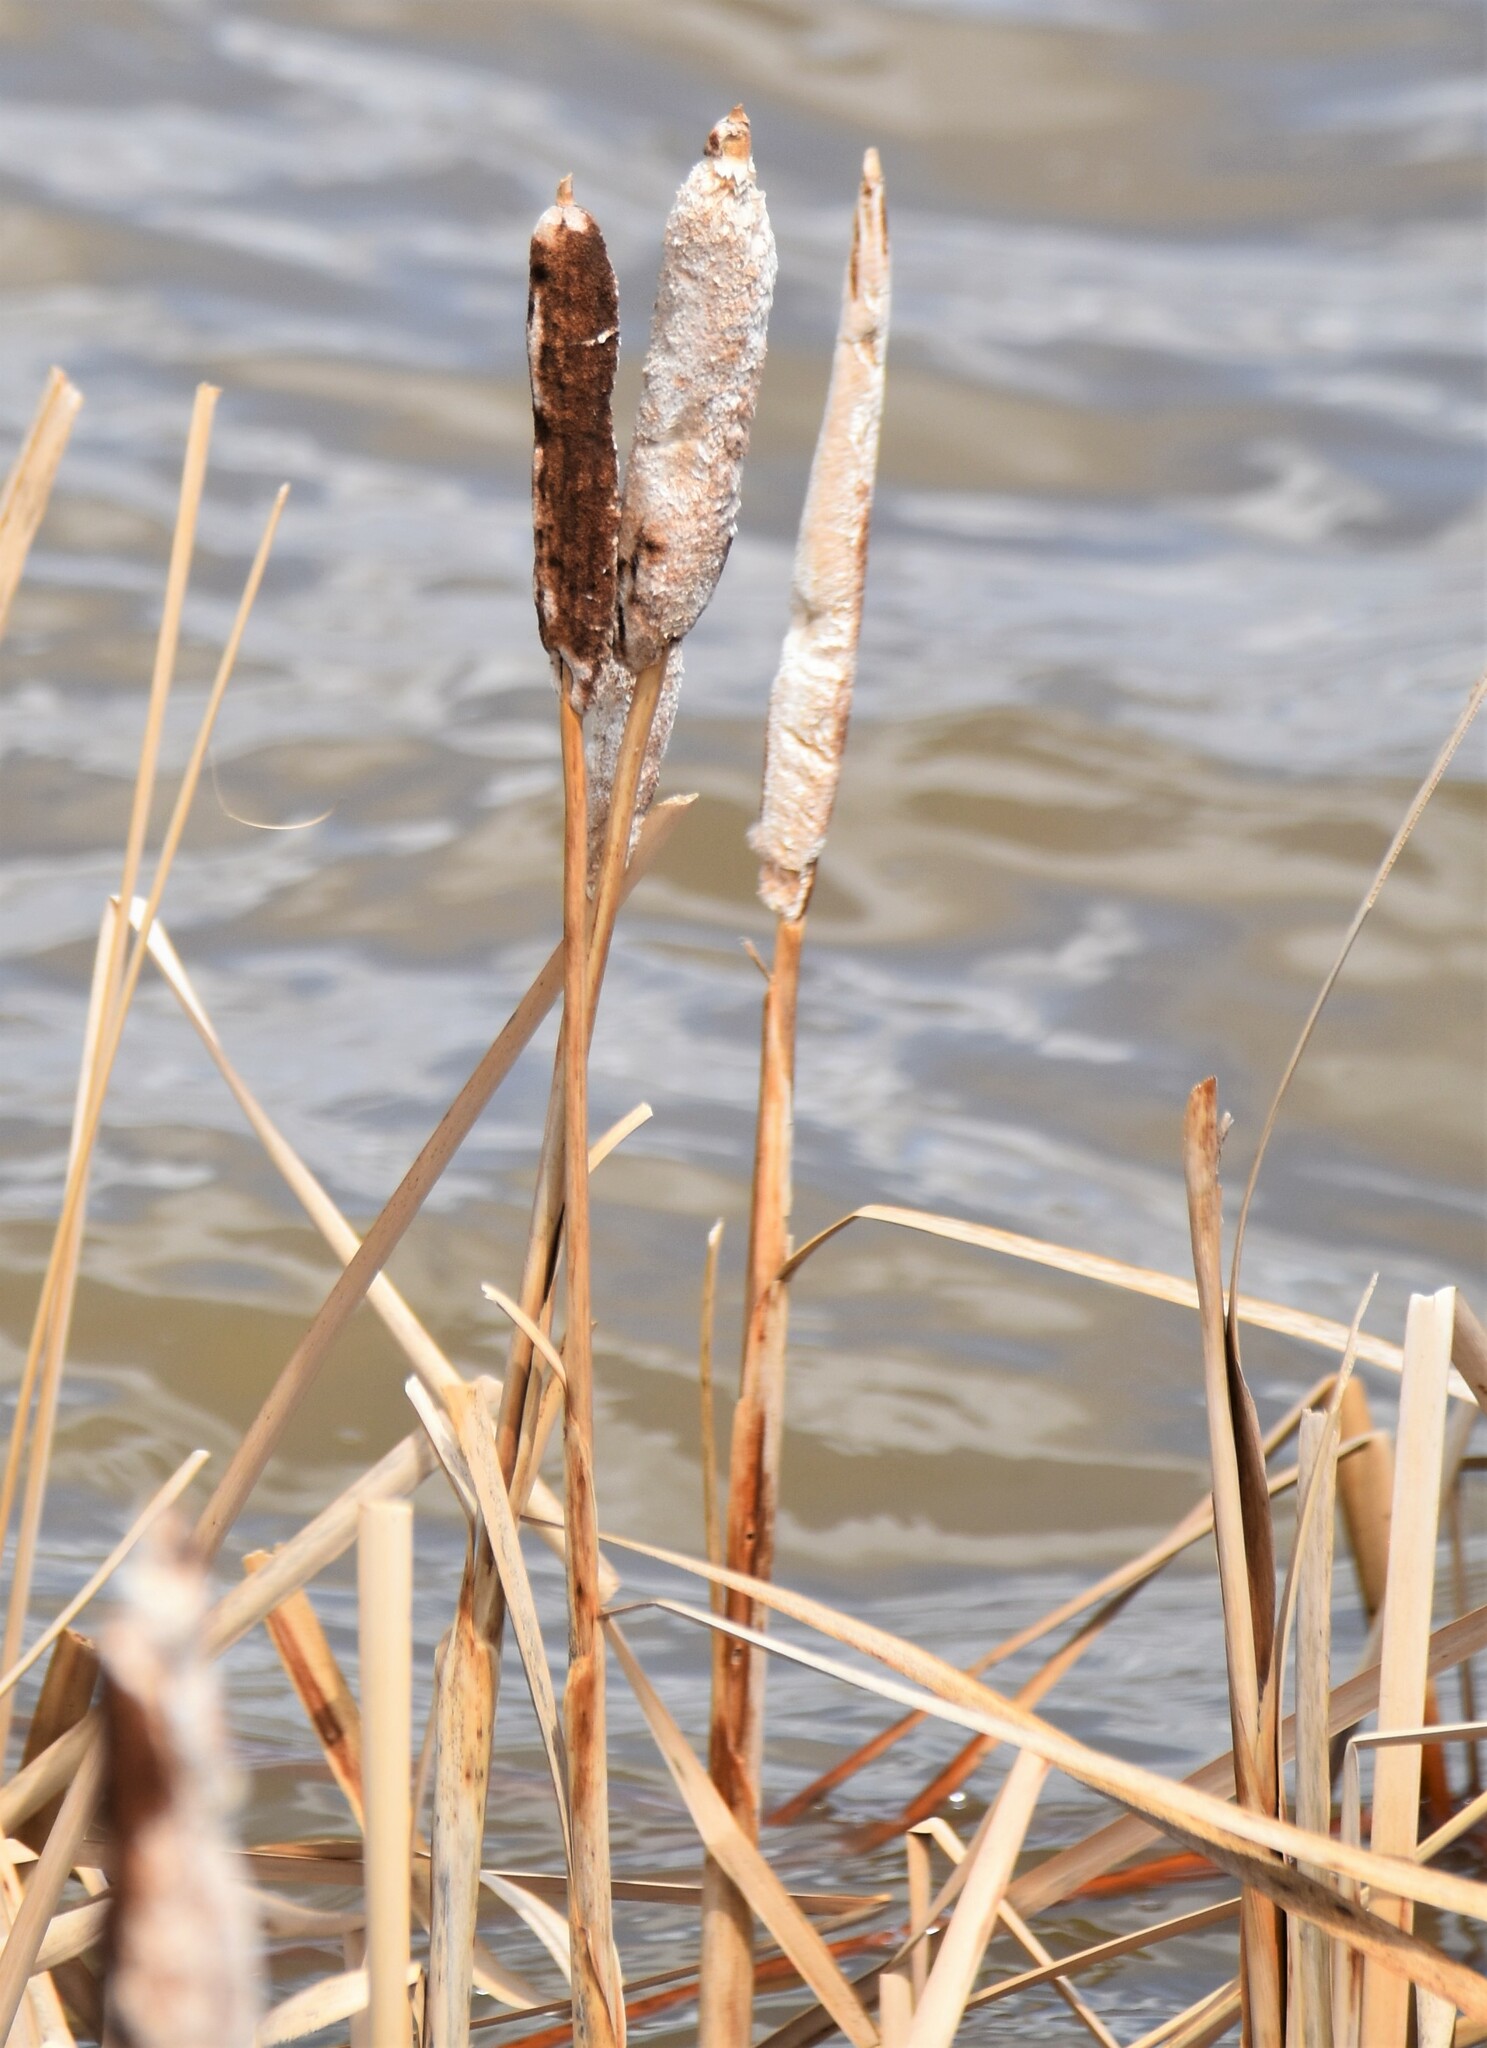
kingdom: Plantae
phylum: Tracheophyta
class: Liliopsida
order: Poales
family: Typhaceae
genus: Typha
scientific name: Typha latifolia
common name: Broadleaf cattail
